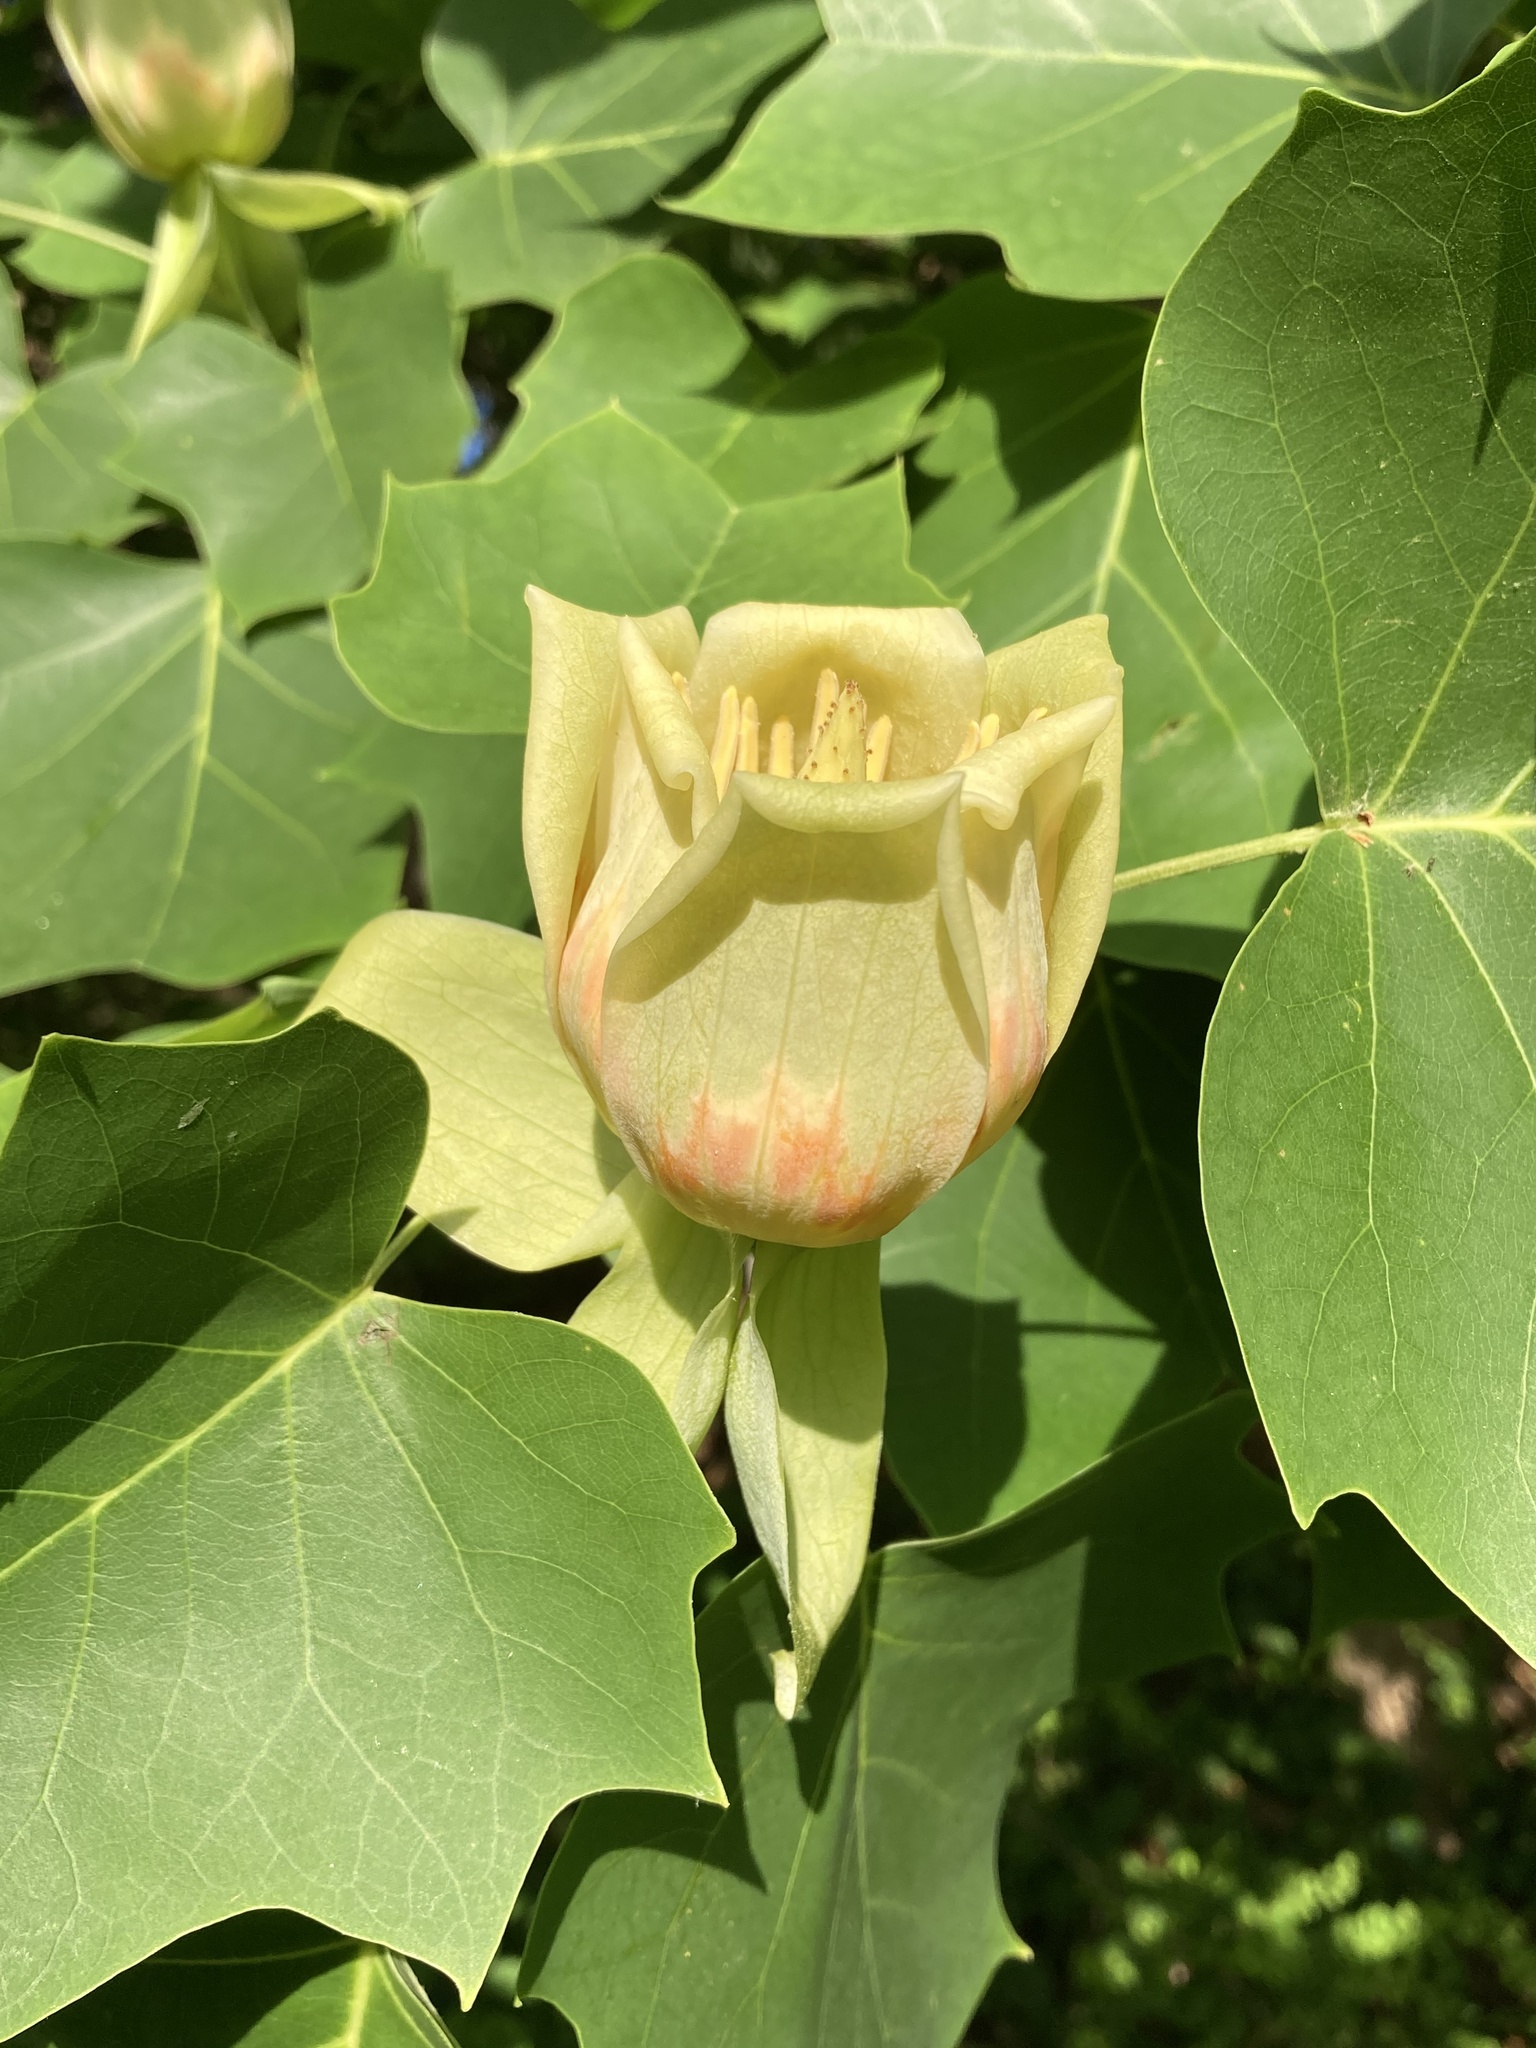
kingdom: Plantae
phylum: Tracheophyta
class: Magnoliopsida
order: Magnoliales
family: Magnoliaceae
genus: Liriodendron
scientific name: Liriodendron tulipifera
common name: Tulip tree
